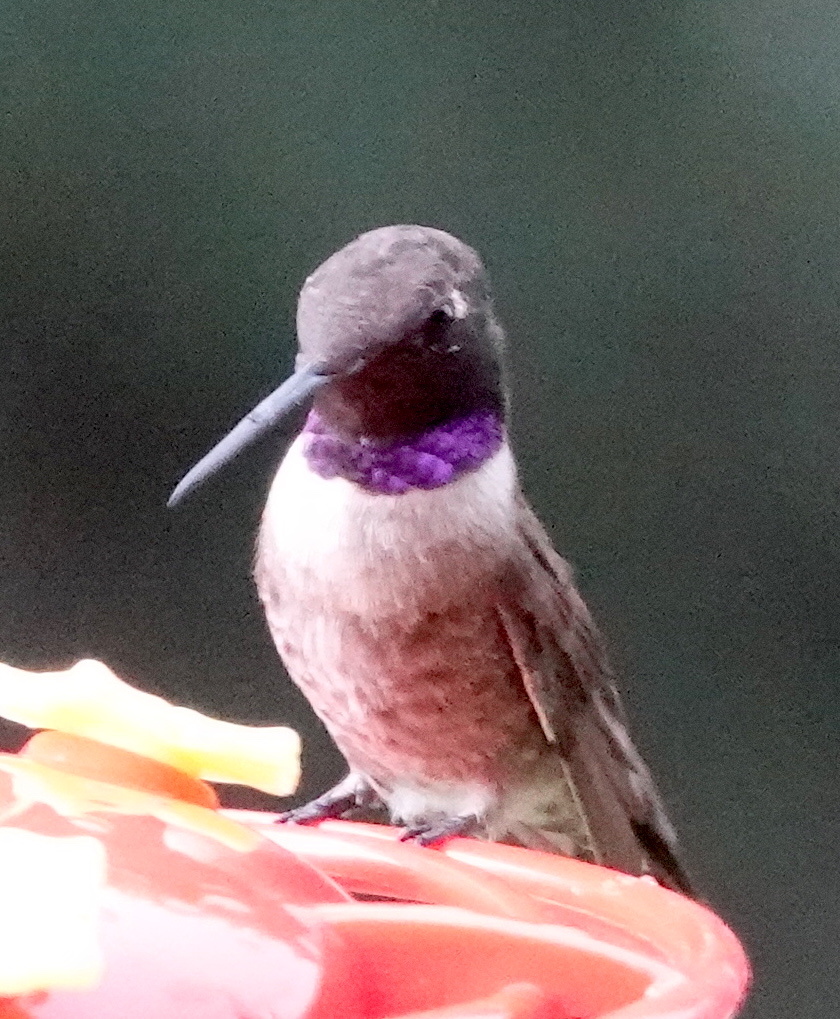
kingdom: Animalia
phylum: Chordata
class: Aves
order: Apodiformes
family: Trochilidae
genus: Archilochus
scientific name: Archilochus alexandri
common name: Black-chinned hummingbird
